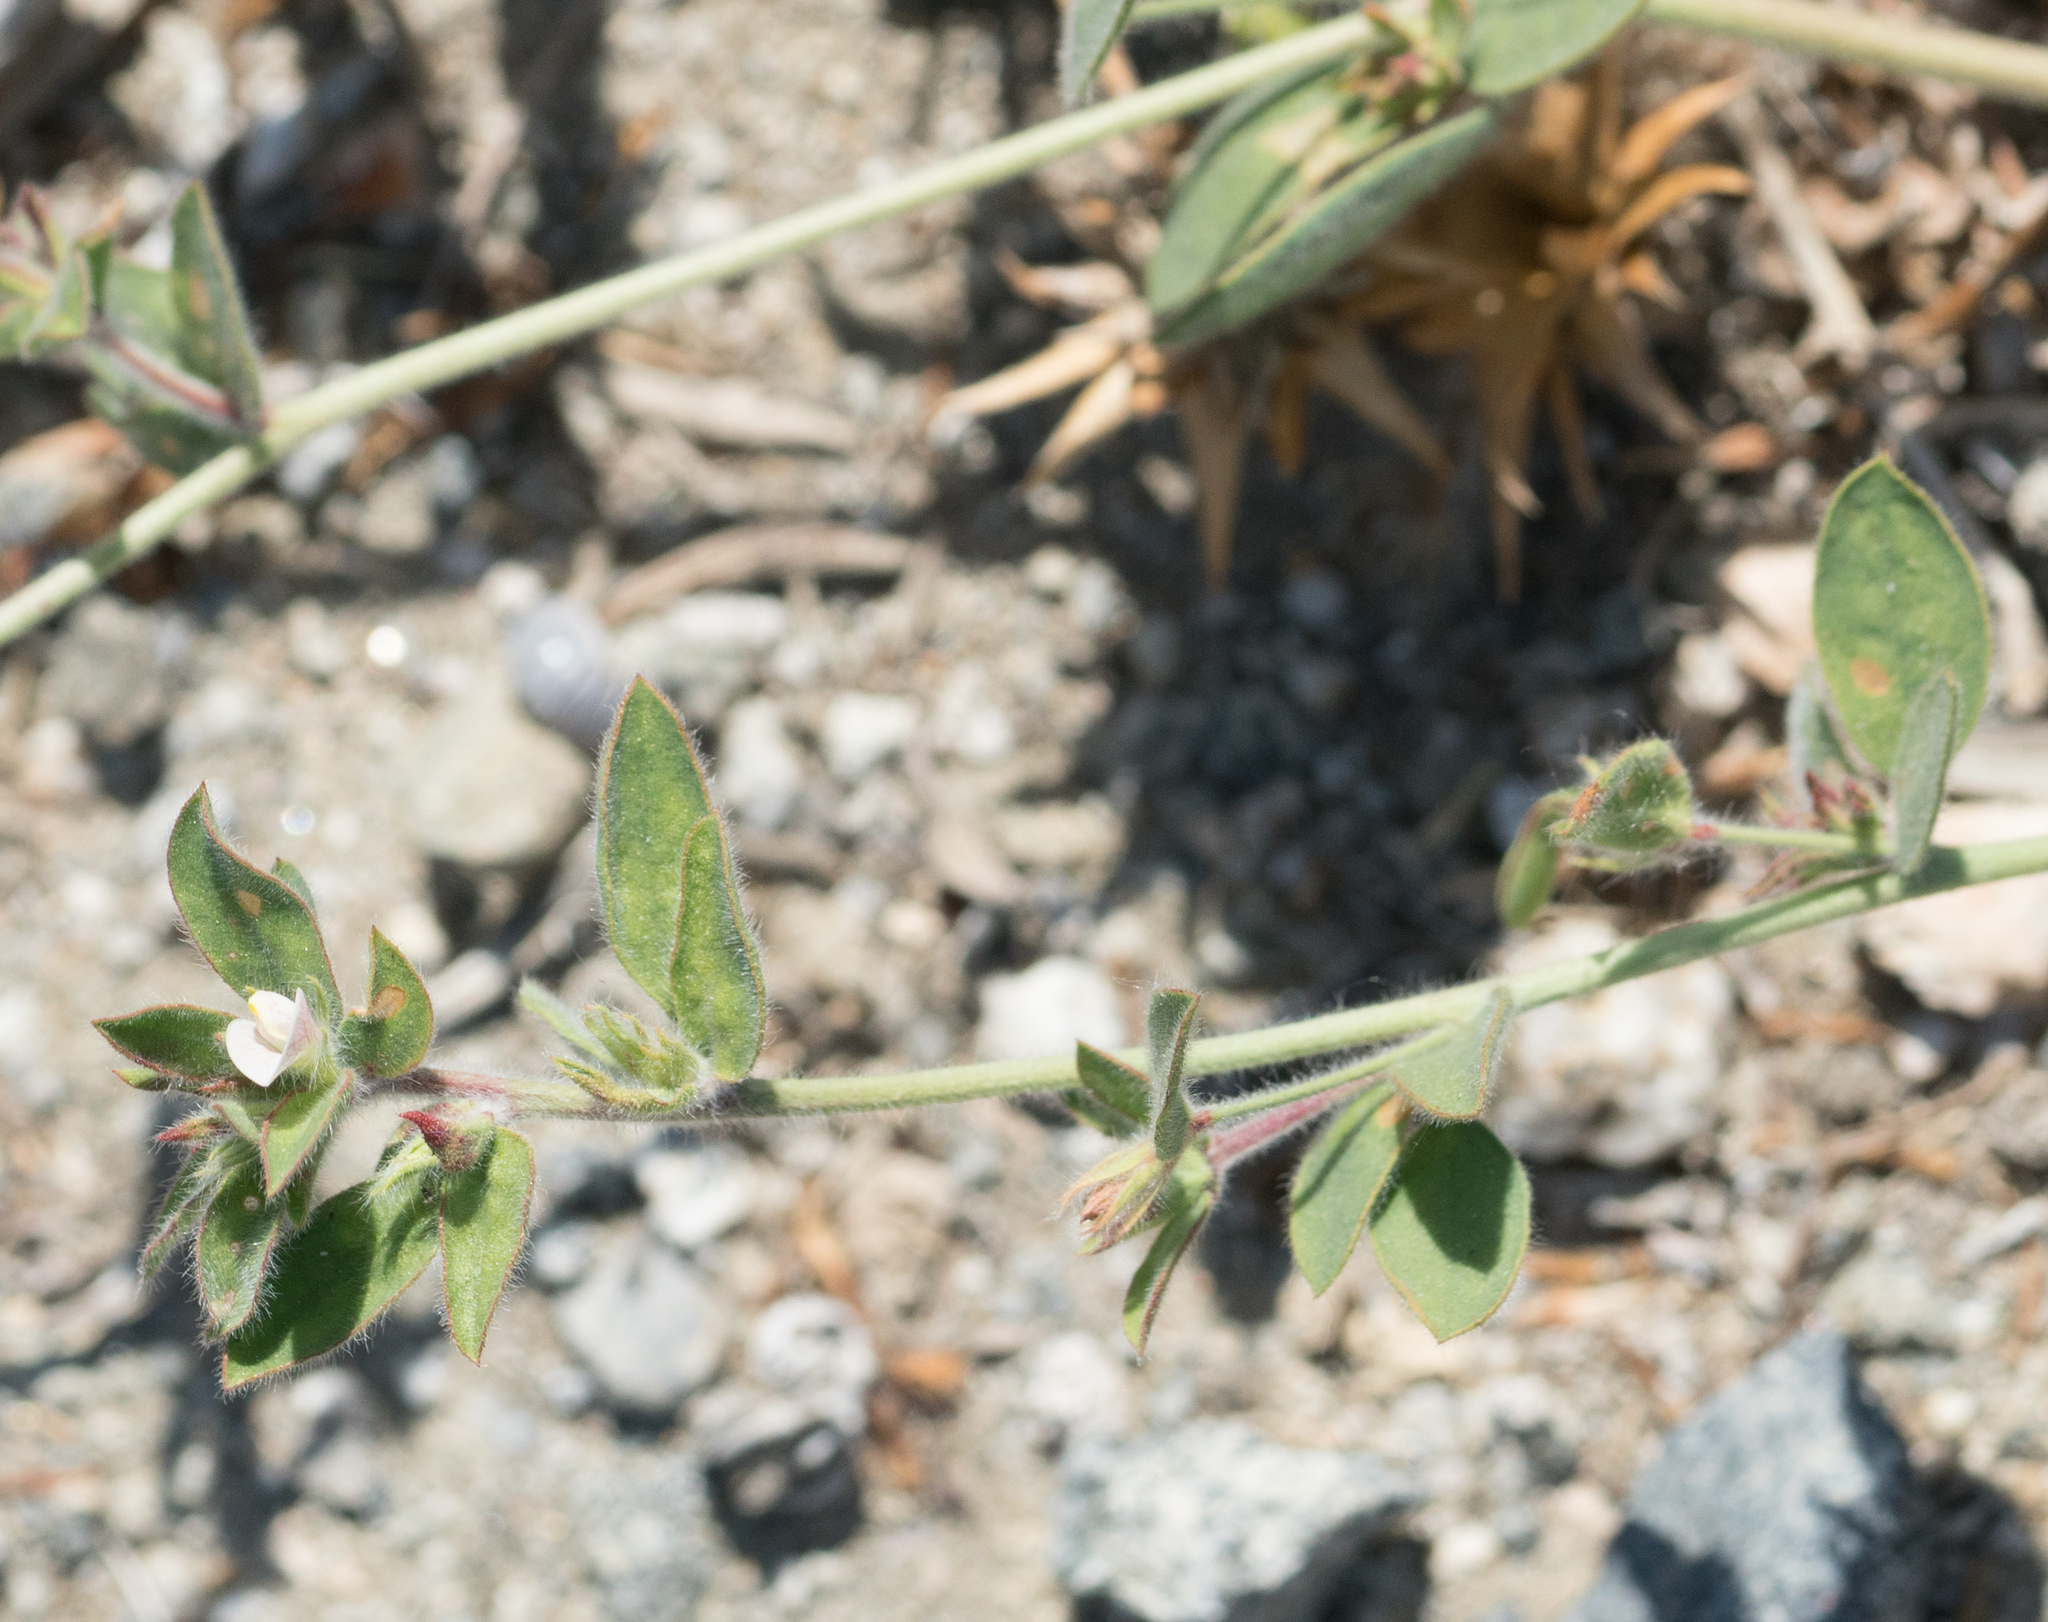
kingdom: Plantae
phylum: Tracheophyta
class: Magnoliopsida
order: Fabales
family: Fabaceae
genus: Acmispon
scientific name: Acmispon americanus
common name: American bird's-foot trefoil
